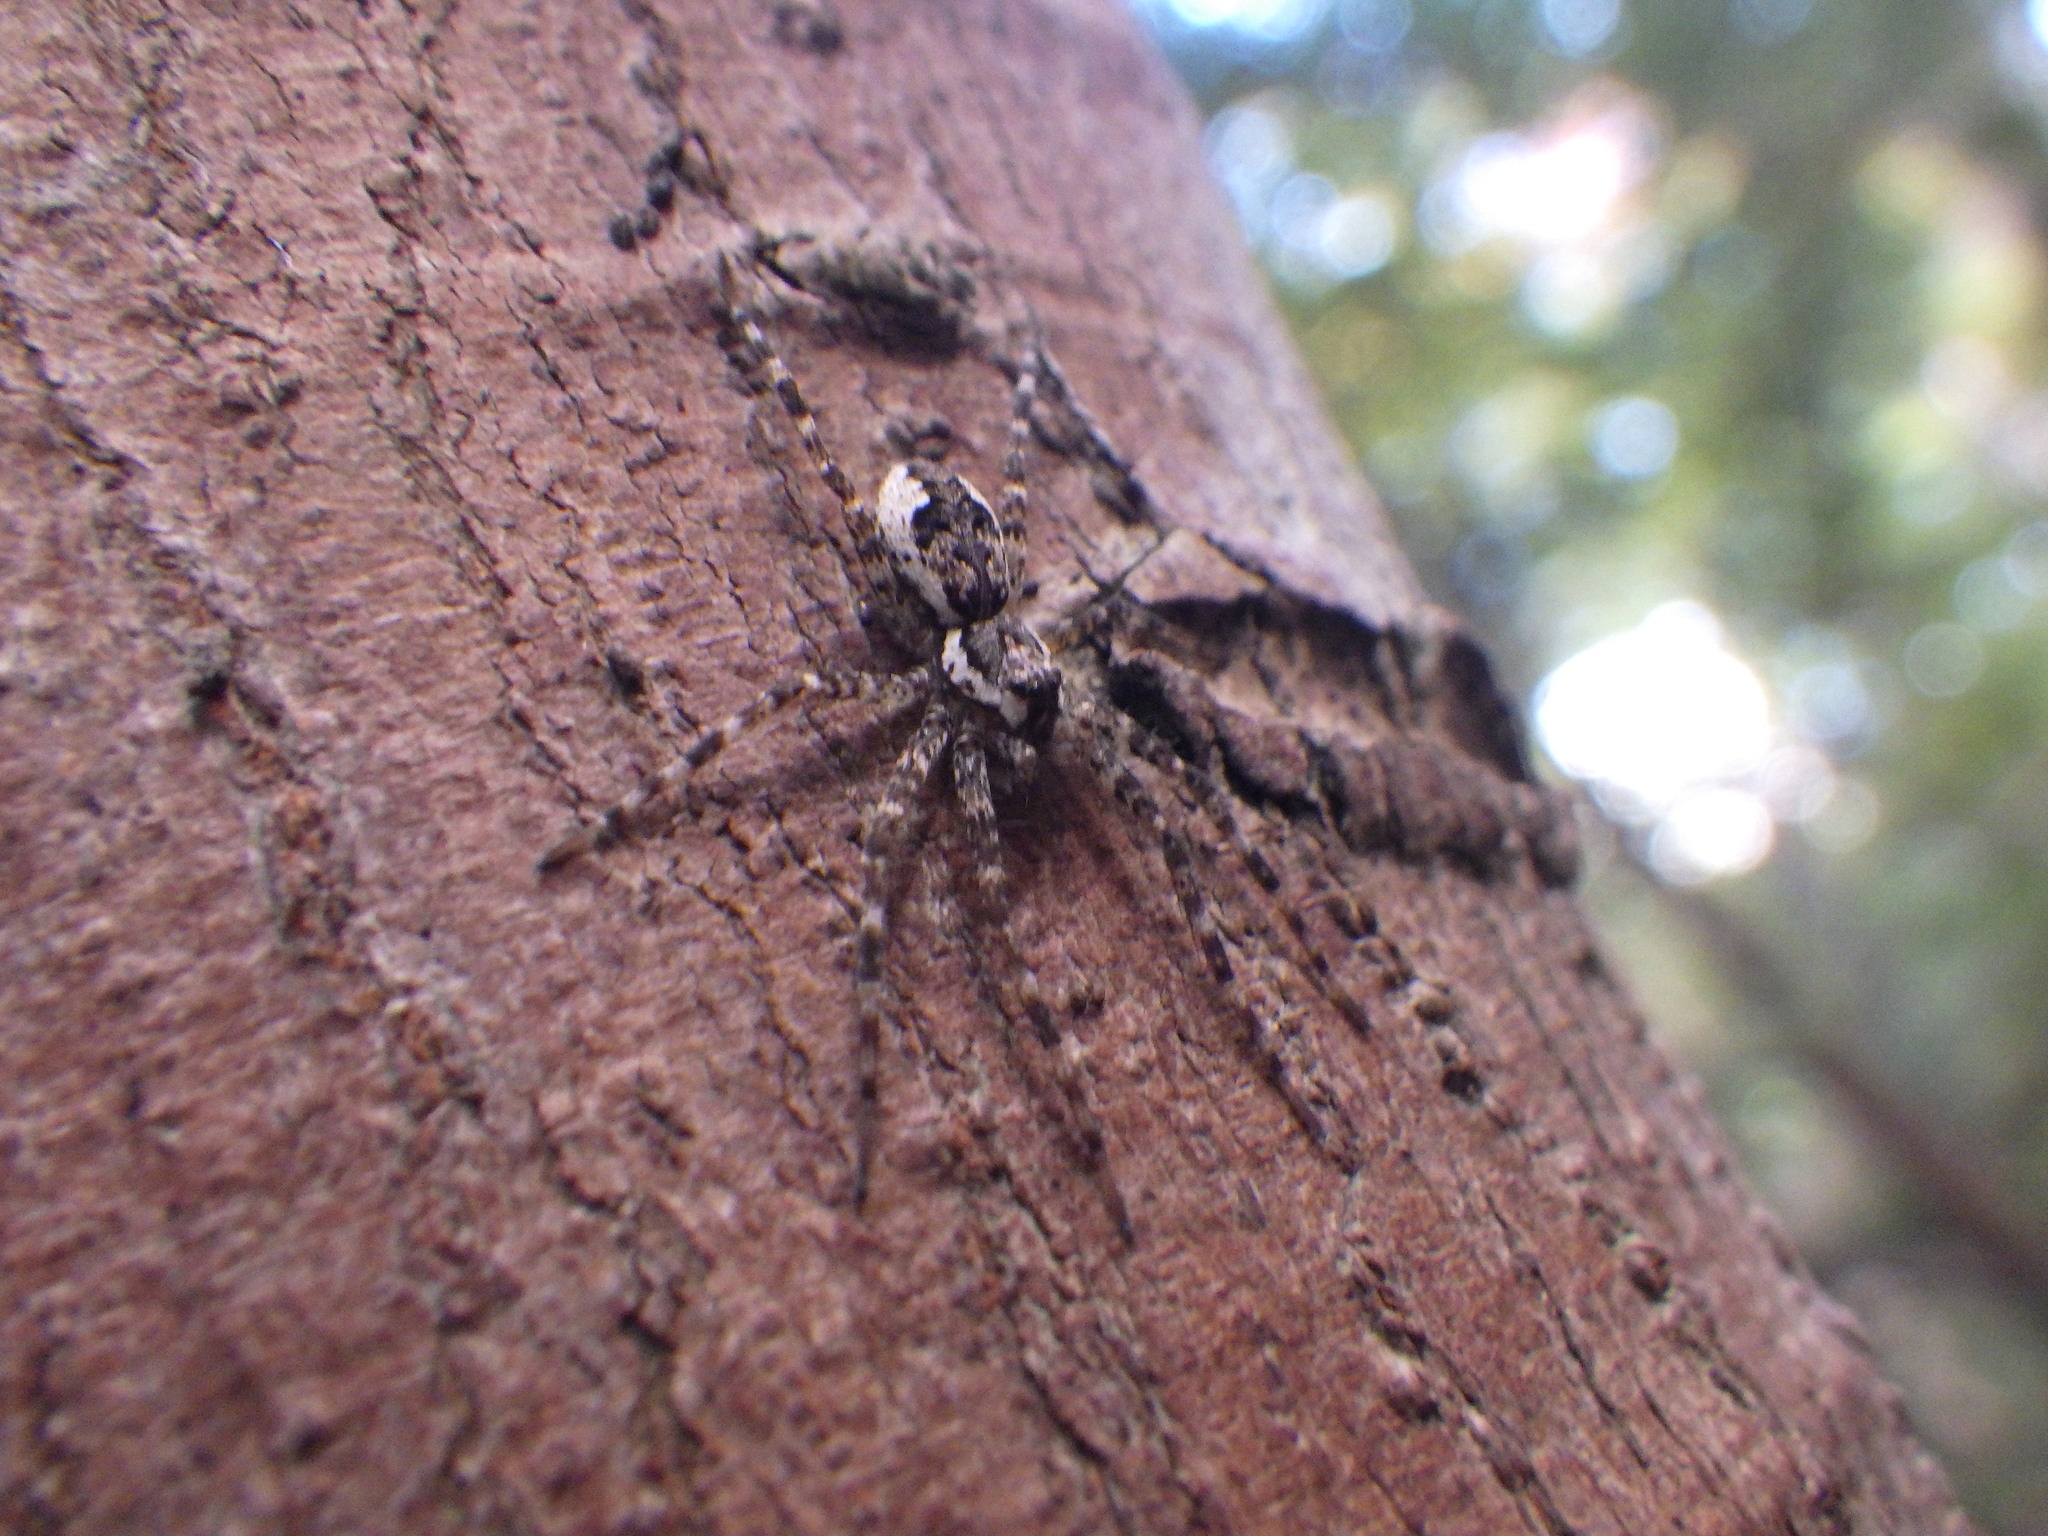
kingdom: Animalia
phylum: Arthropoda
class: Arachnida
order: Araneae
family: Pisauridae
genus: Dolomedes
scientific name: Dolomedes tenebrosus
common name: Dark fishing spider
